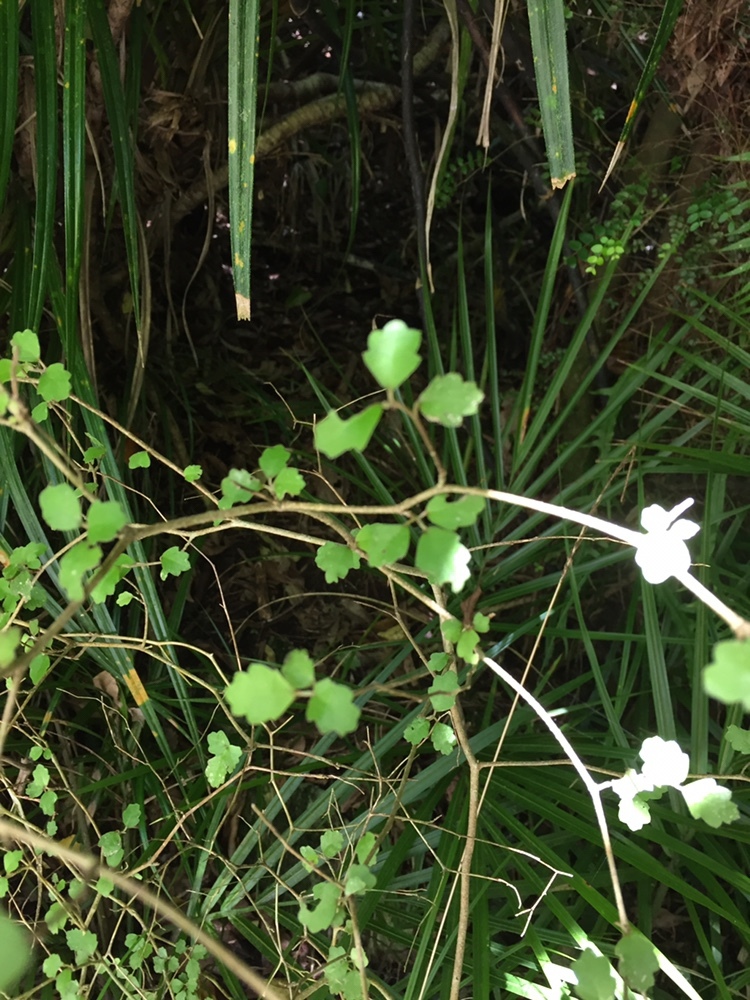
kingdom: Plantae
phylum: Tracheophyta
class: Magnoliopsida
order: Apiales
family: Pennantiaceae
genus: Pennantia
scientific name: Pennantia corymbosa
